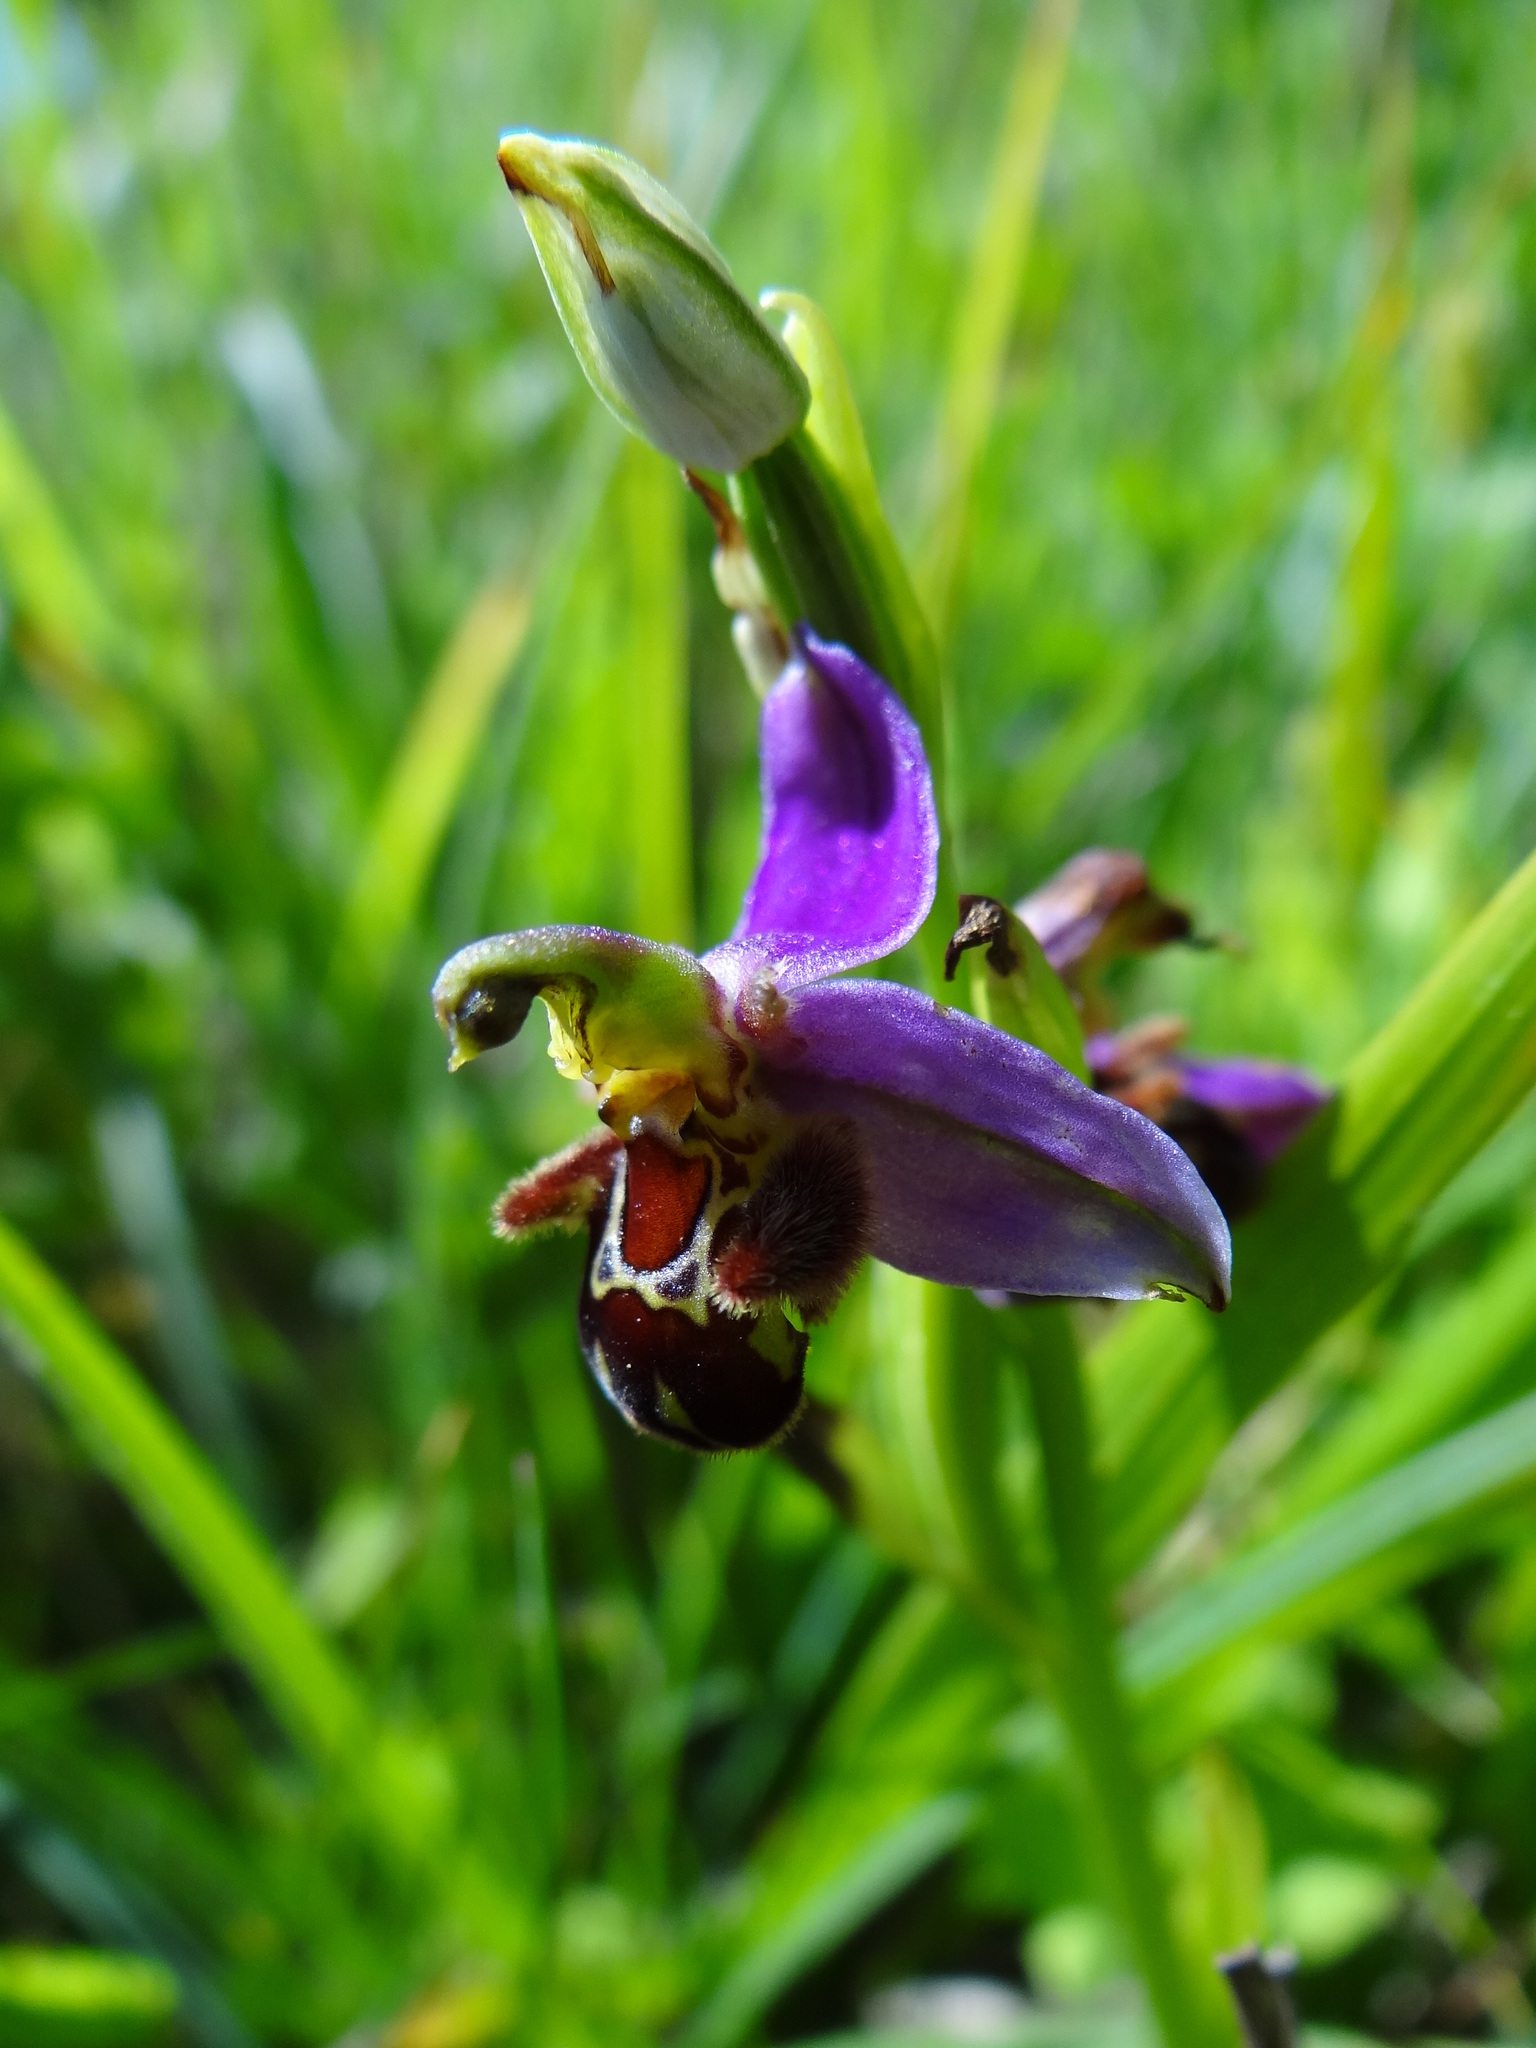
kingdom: Plantae
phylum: Tracheophyta
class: Liliopsida
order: Asparagales
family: Orchidaceae
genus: Ophrys
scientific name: Ophrys apifera
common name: Bee orchid
